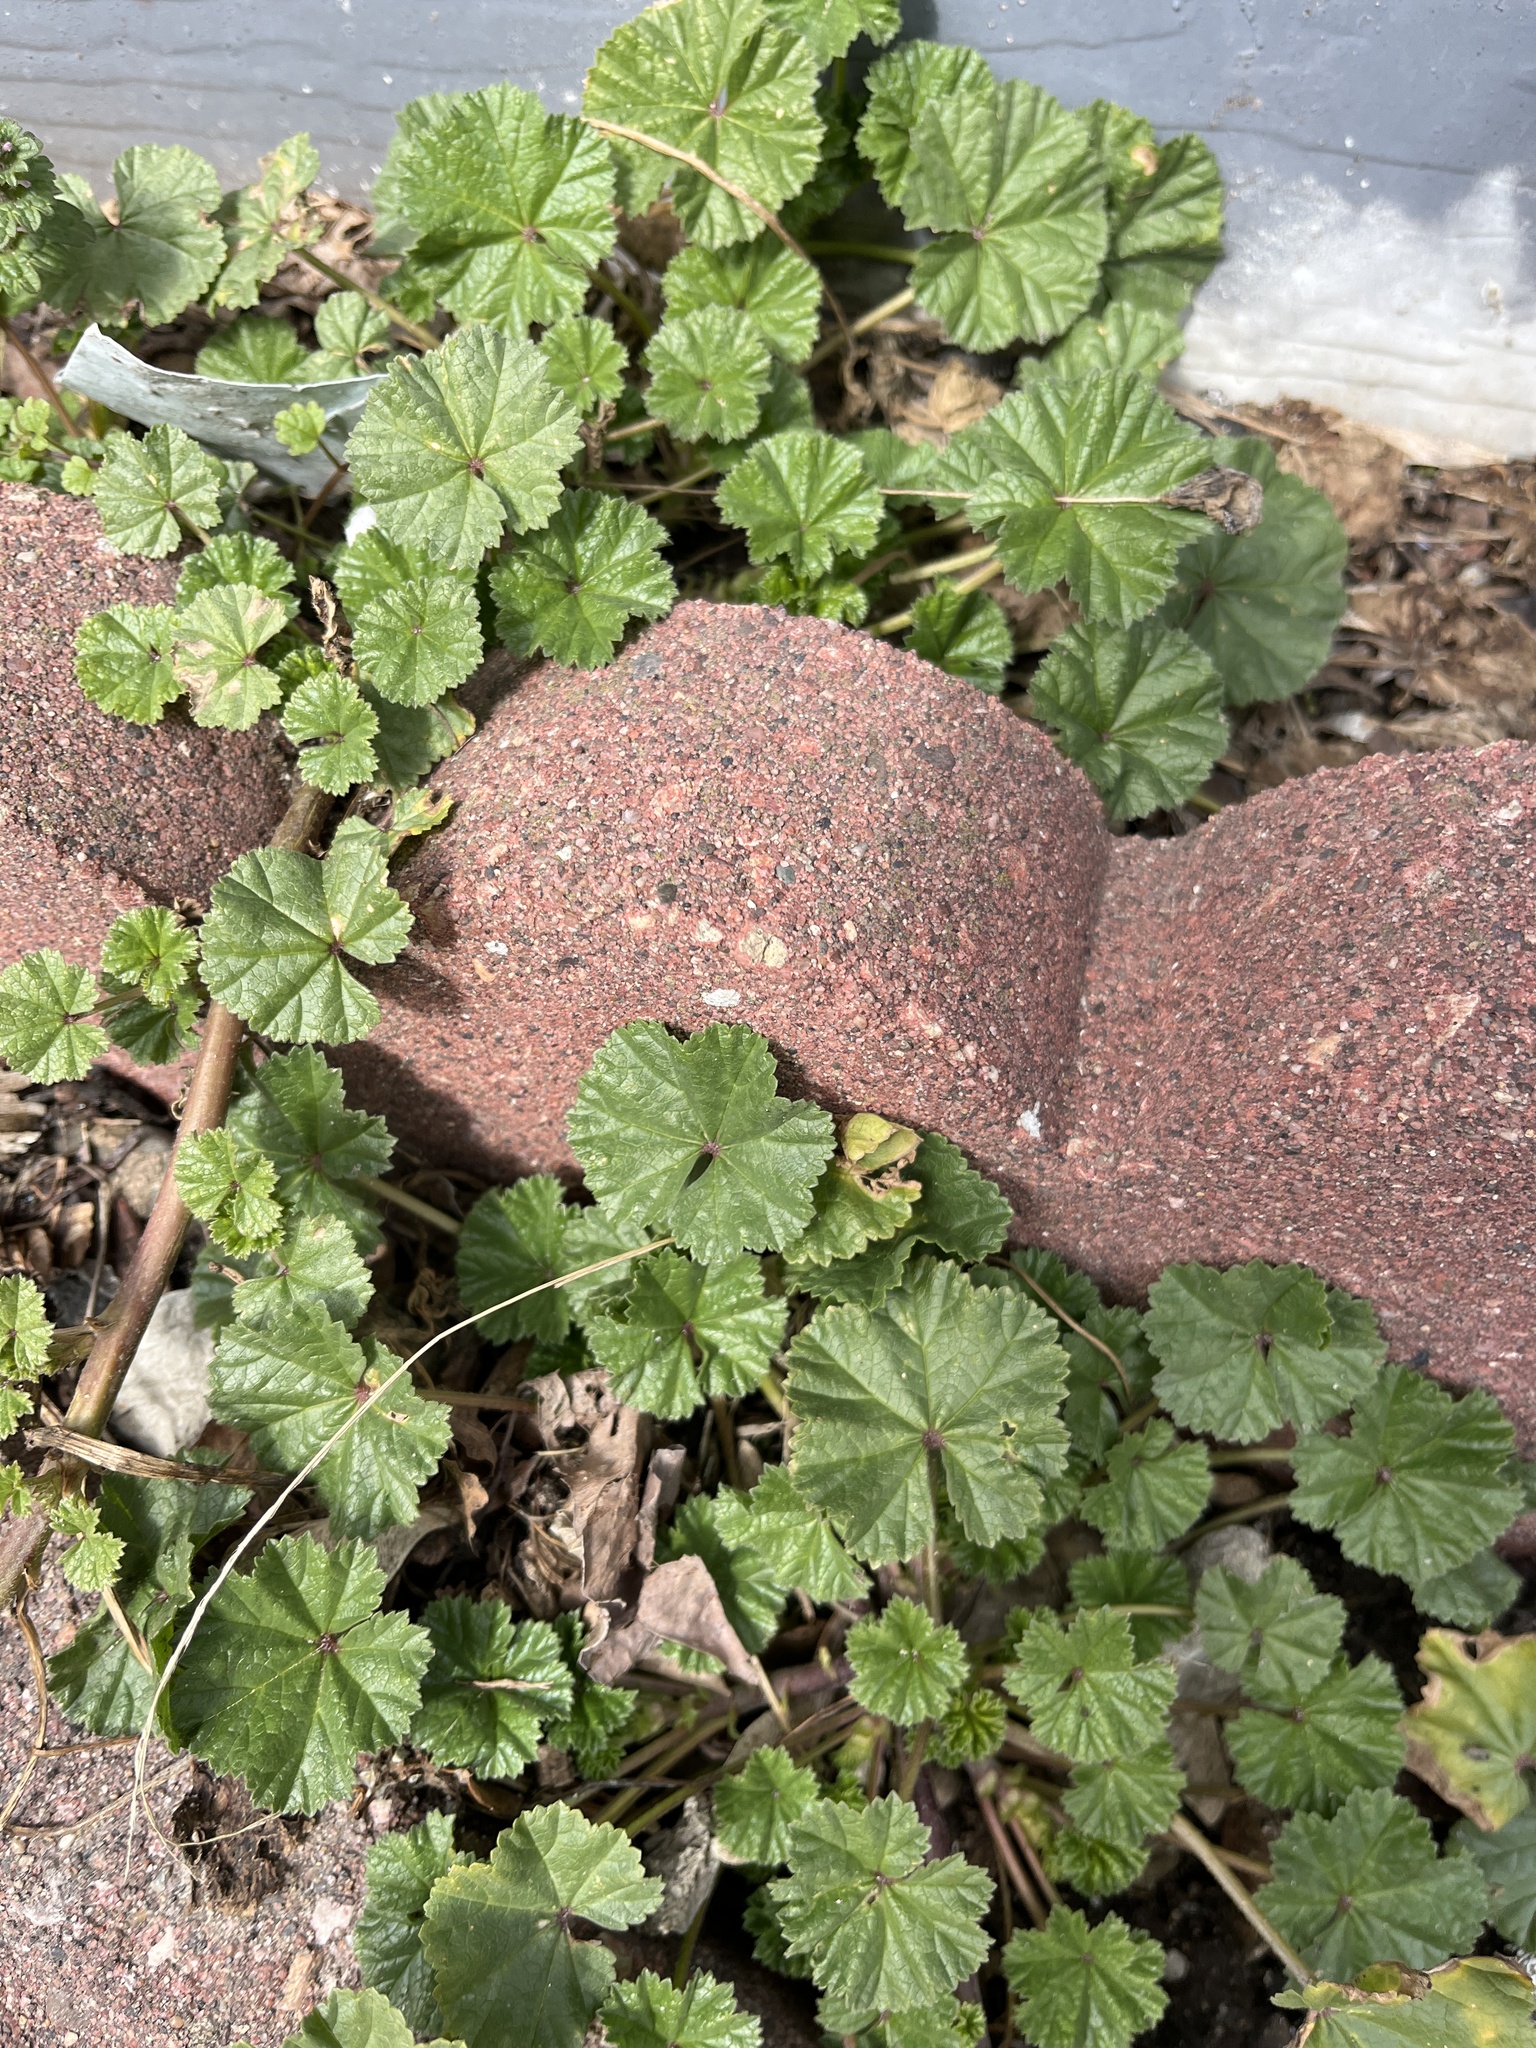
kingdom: Plantae
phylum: Tracheophyta
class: Magnoliopsida
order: Malvales
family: Malvaceae
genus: Malva
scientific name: Malva neglecta
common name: Common mallow
